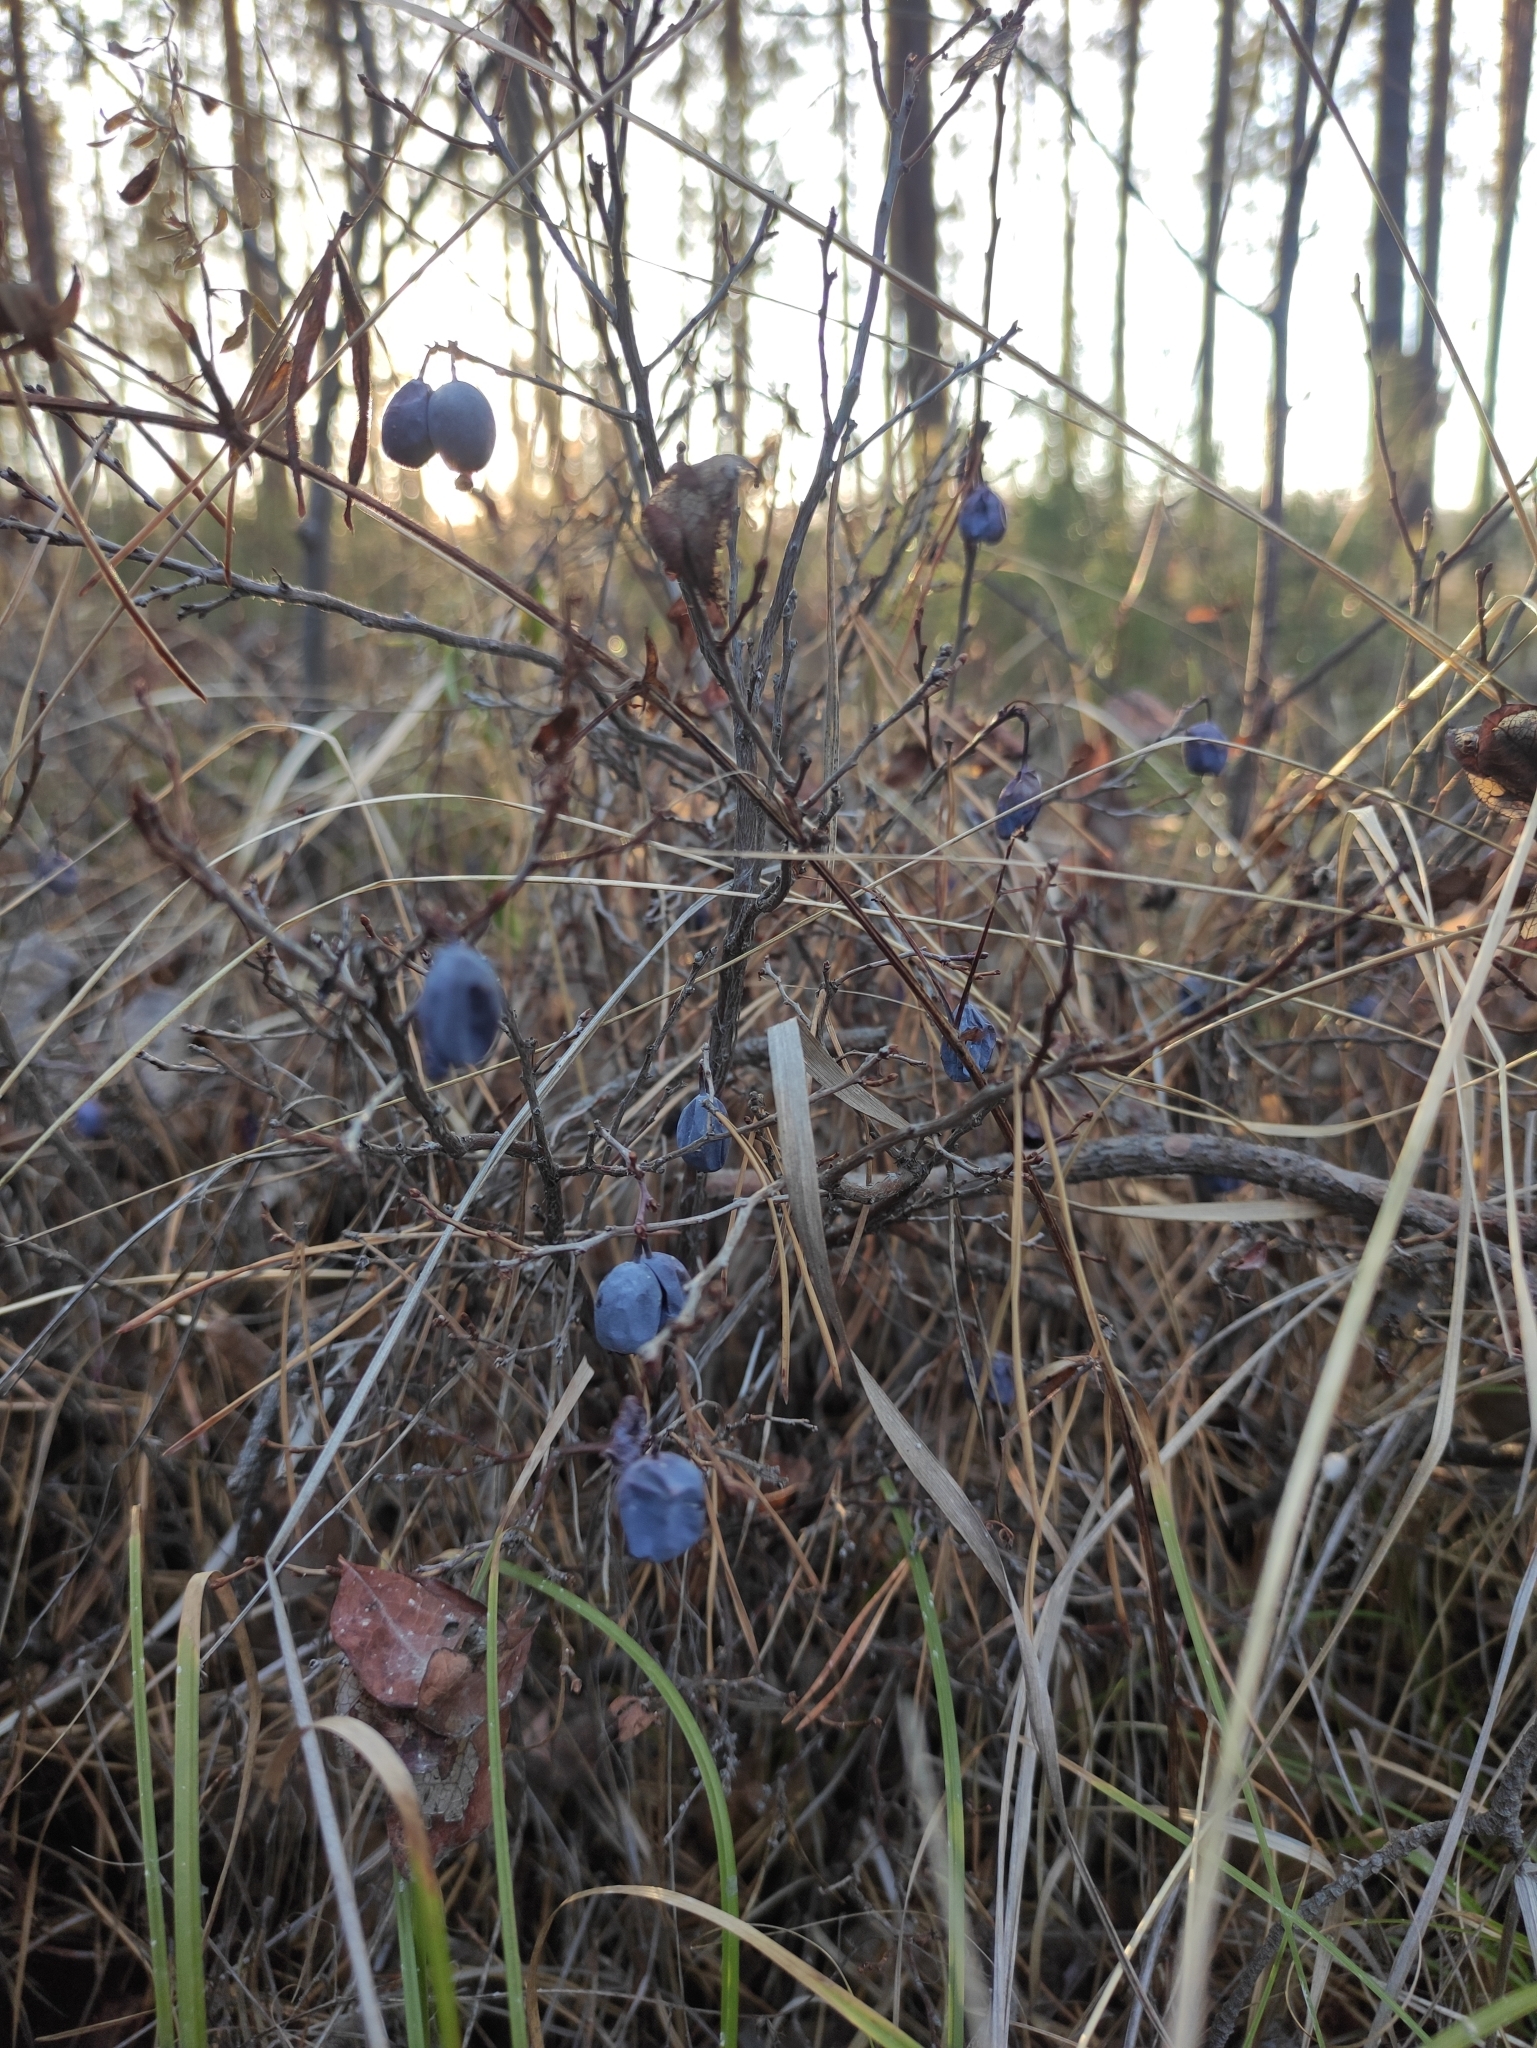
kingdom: Plantae
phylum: Tracheophyta
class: Magnoliopsida
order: Ericales
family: Ericaceae
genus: Vaccinium
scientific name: Vaccinium uliginosum
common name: Bog bilberry
